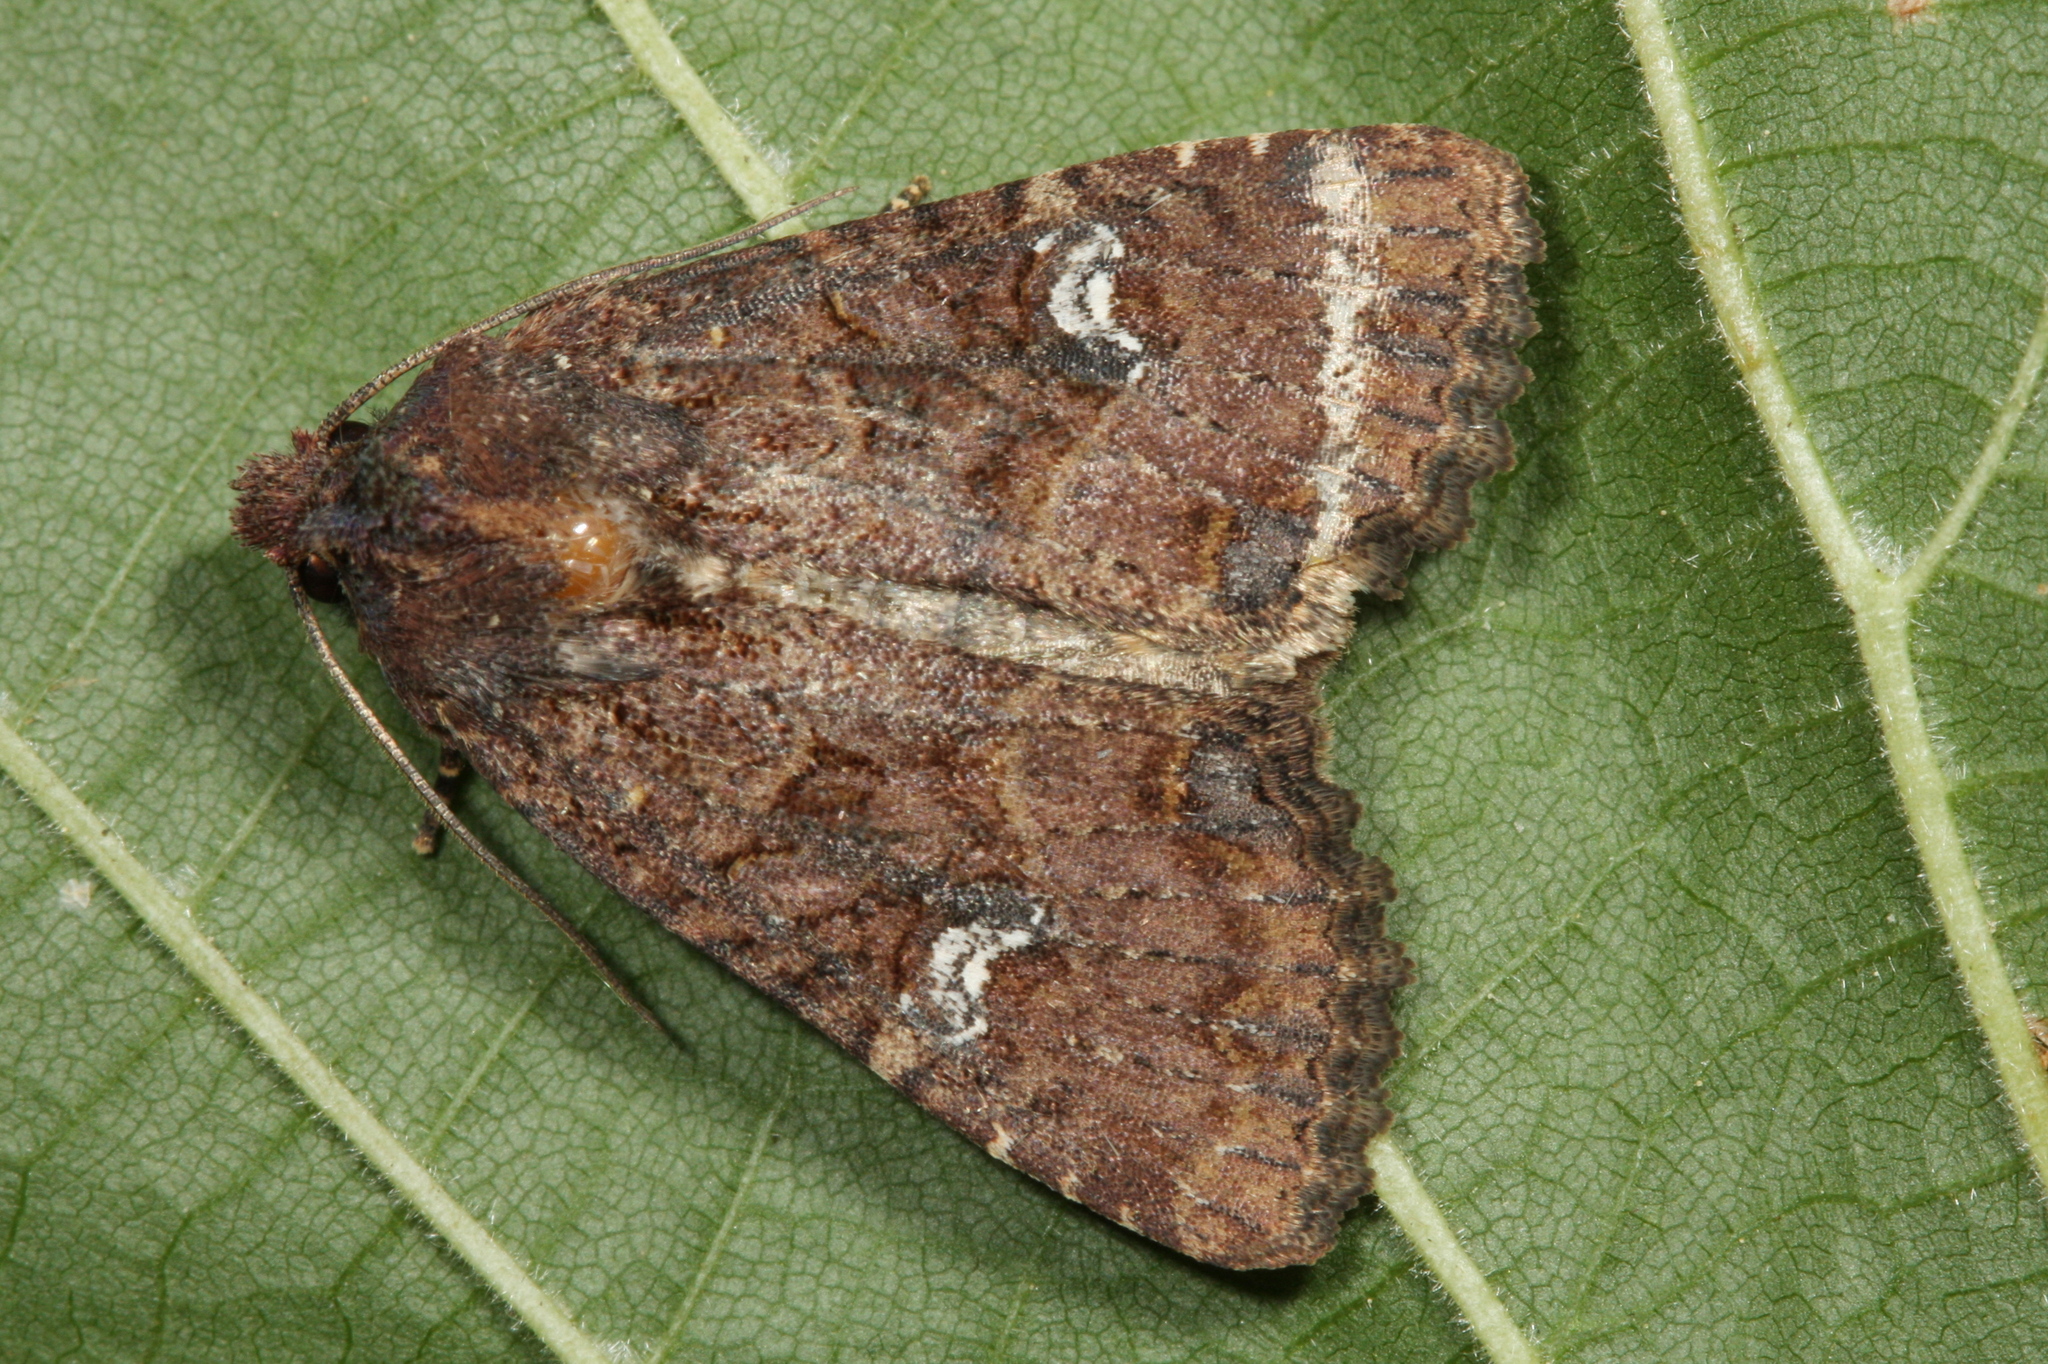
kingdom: Animalia
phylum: Arthropoda
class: Insecta
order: Lepidoptera
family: Noctuidae
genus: Mesapamea
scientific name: Mesapamea
